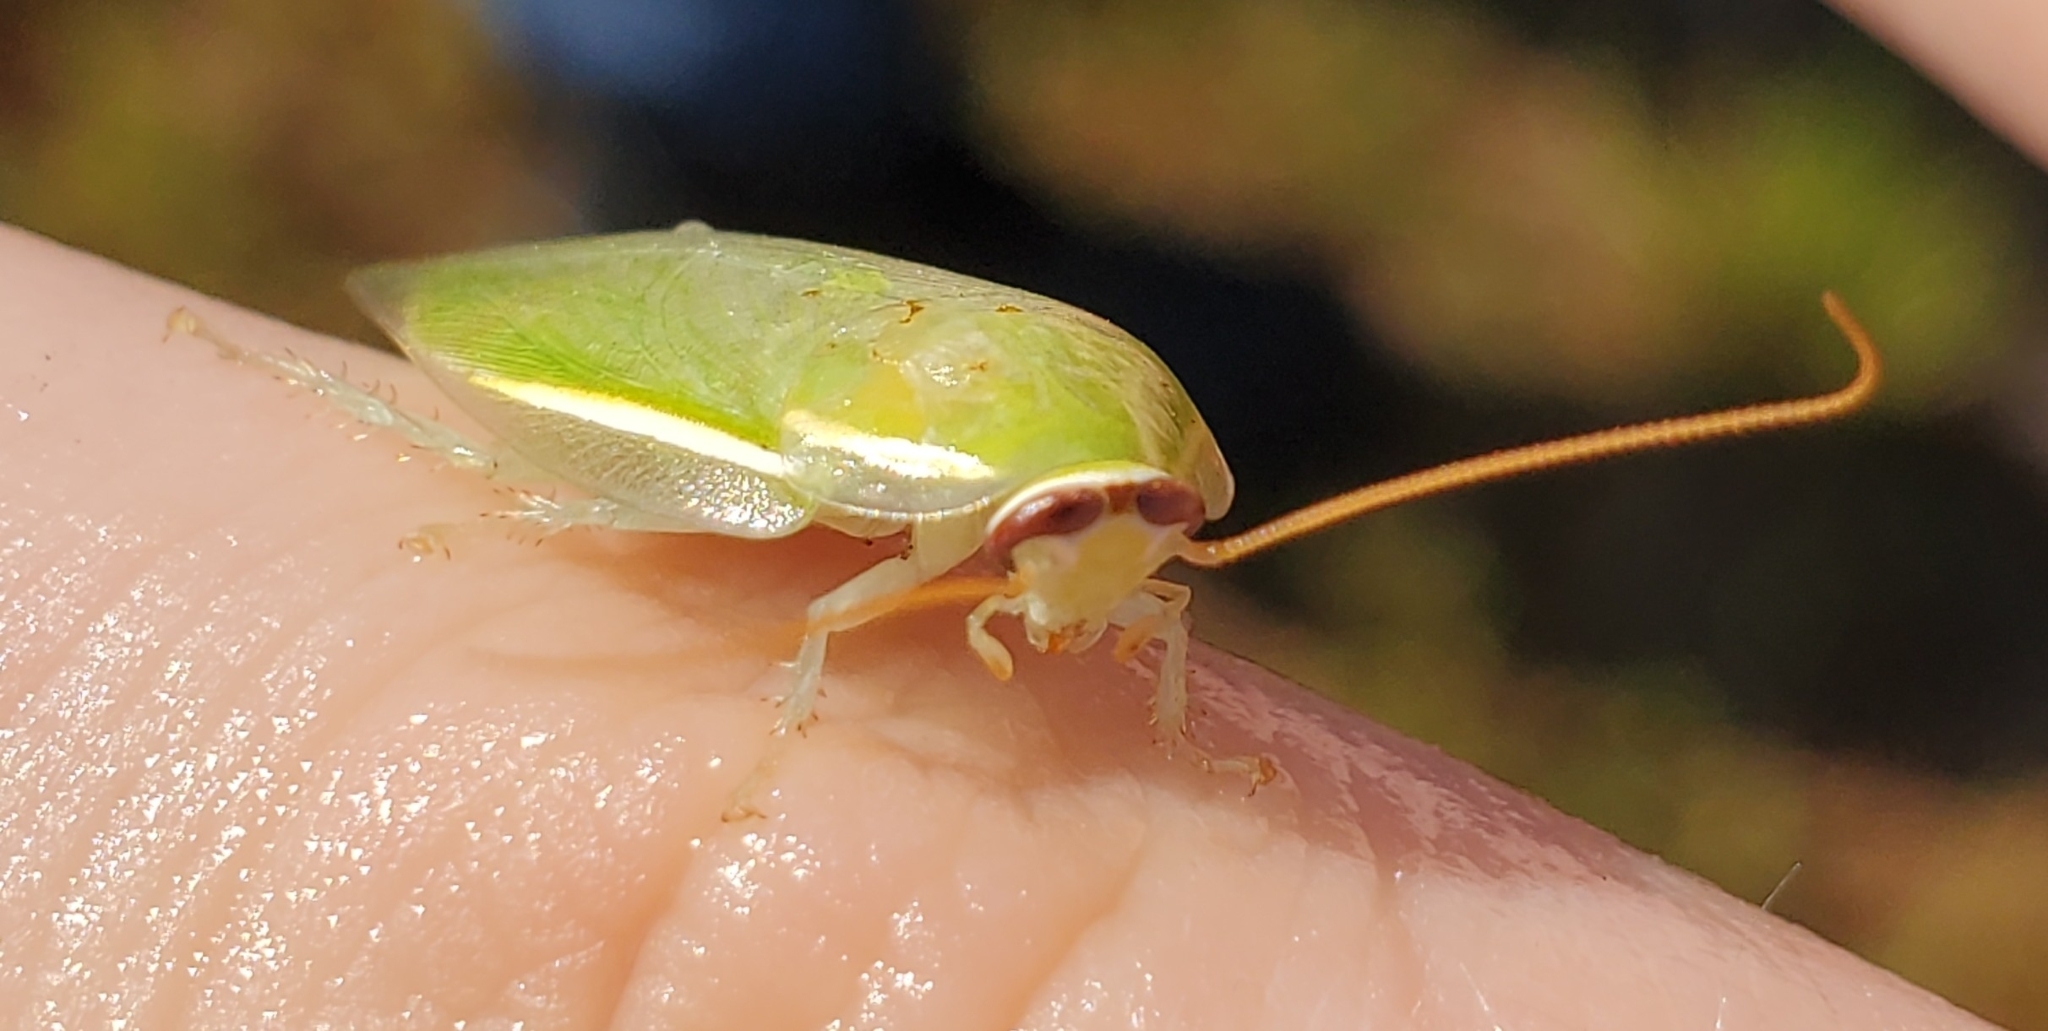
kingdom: Animalia
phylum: Arthropoda
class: Insecta
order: Blattodea
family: Blaberidae
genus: Panchlora
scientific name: Panchlora nivea
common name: Cuban cockroach
